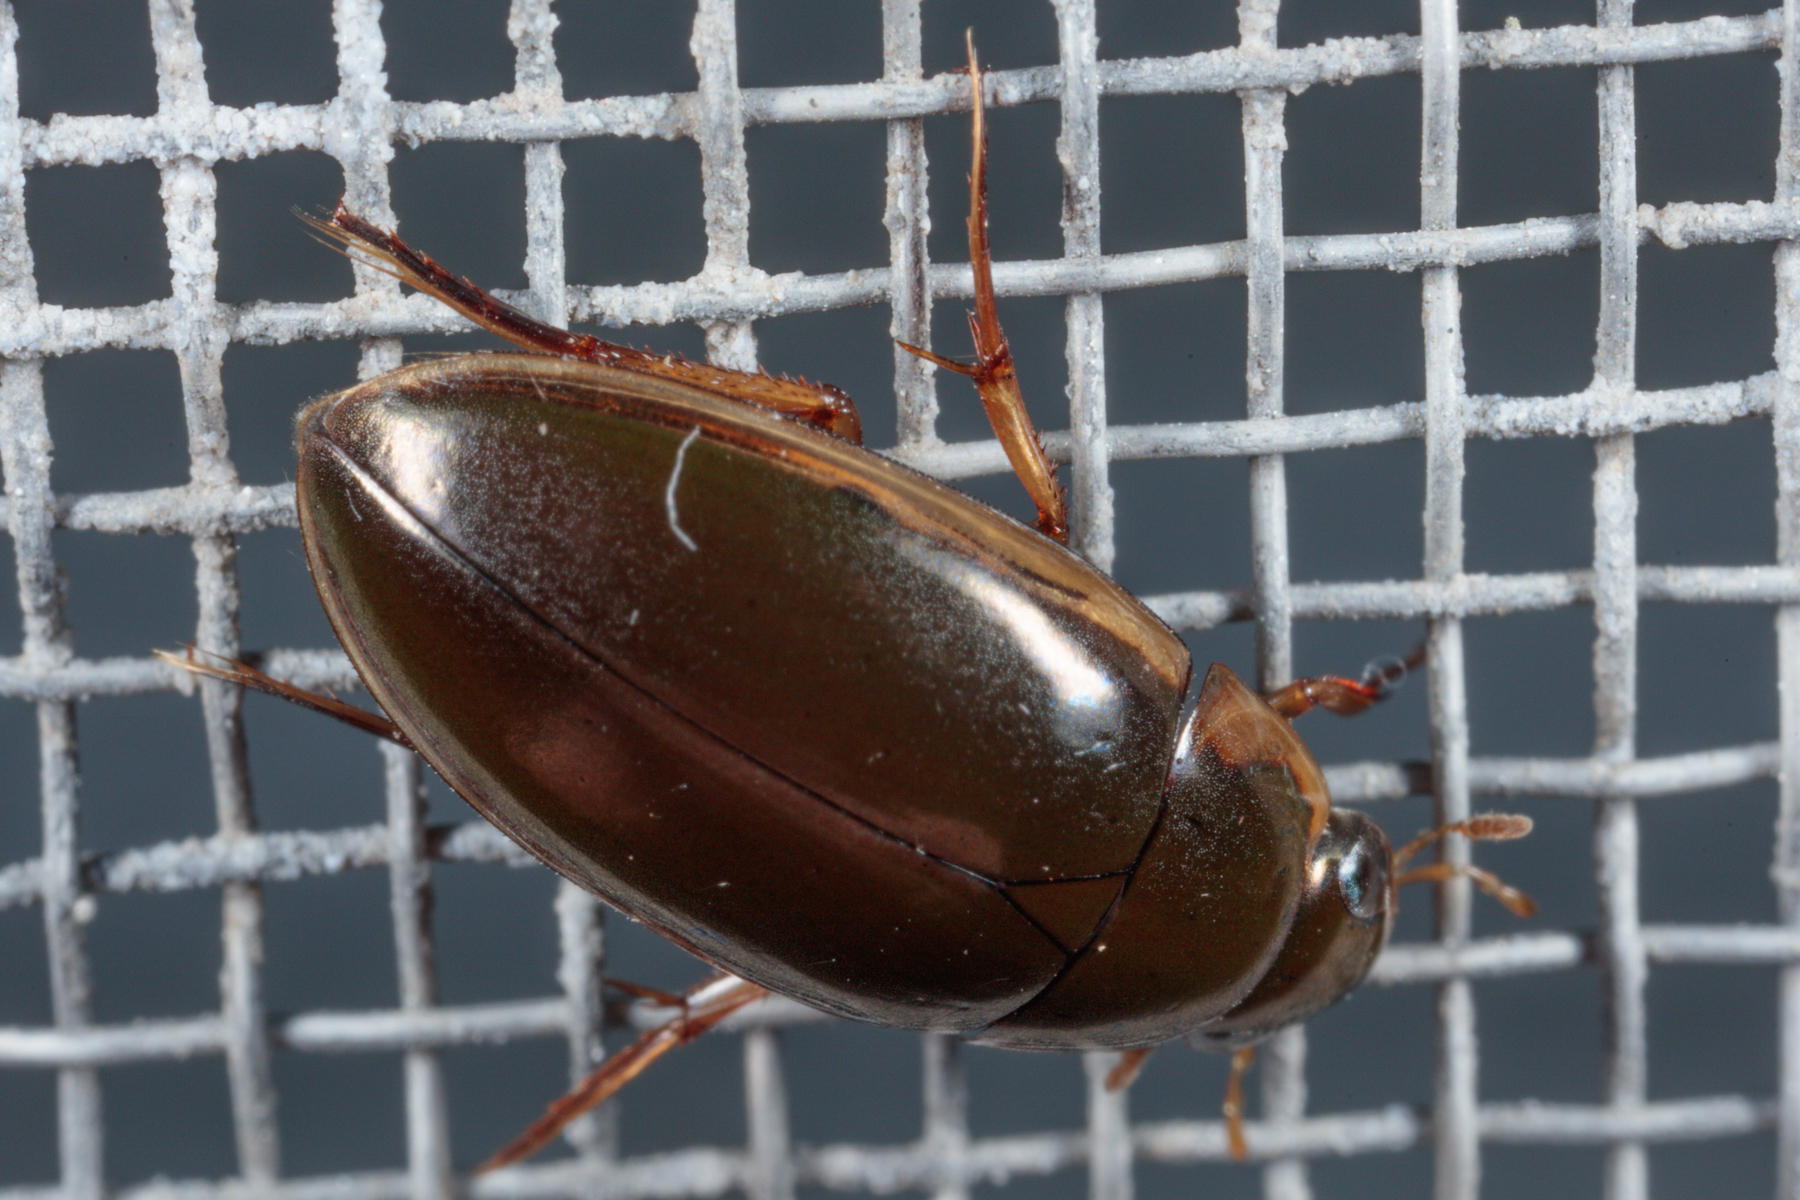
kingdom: Animalia
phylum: Arthropoda
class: Insecta
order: Coleoptera
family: Hydrophilidae
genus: Tropisternus
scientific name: Tropisternus lateralis
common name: Lateral-banded water scavenger beetle
